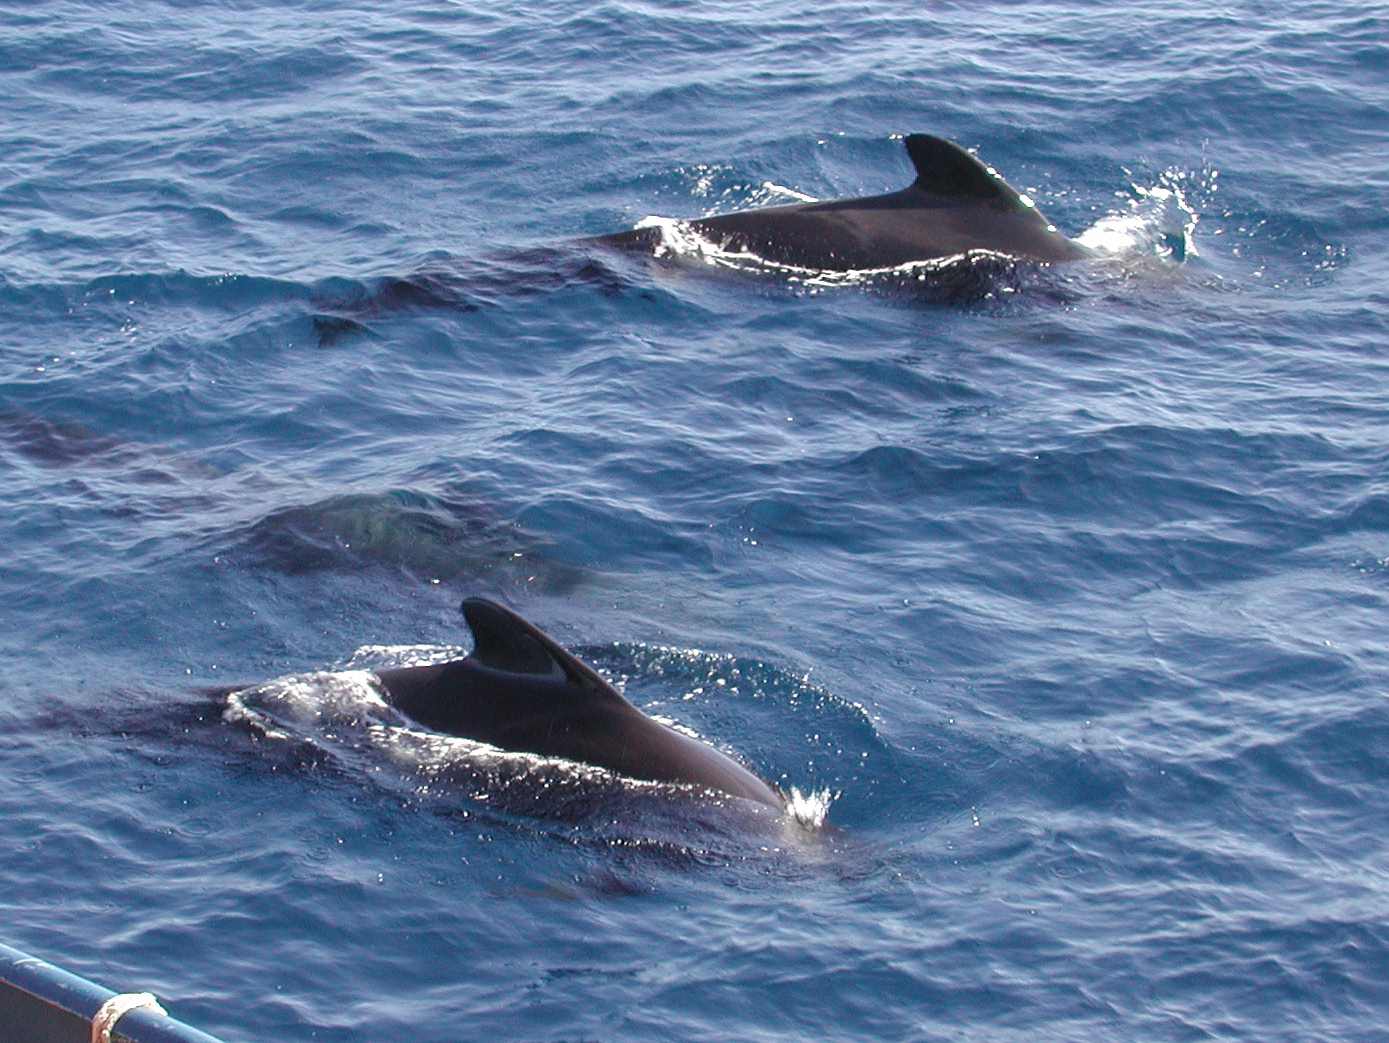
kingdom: Animalia
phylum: Chordata
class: Mammalia
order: Cetacea
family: Delphinidae
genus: Globicephala
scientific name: Globicephala macrorhynchus
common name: Short-finned pilot whale
